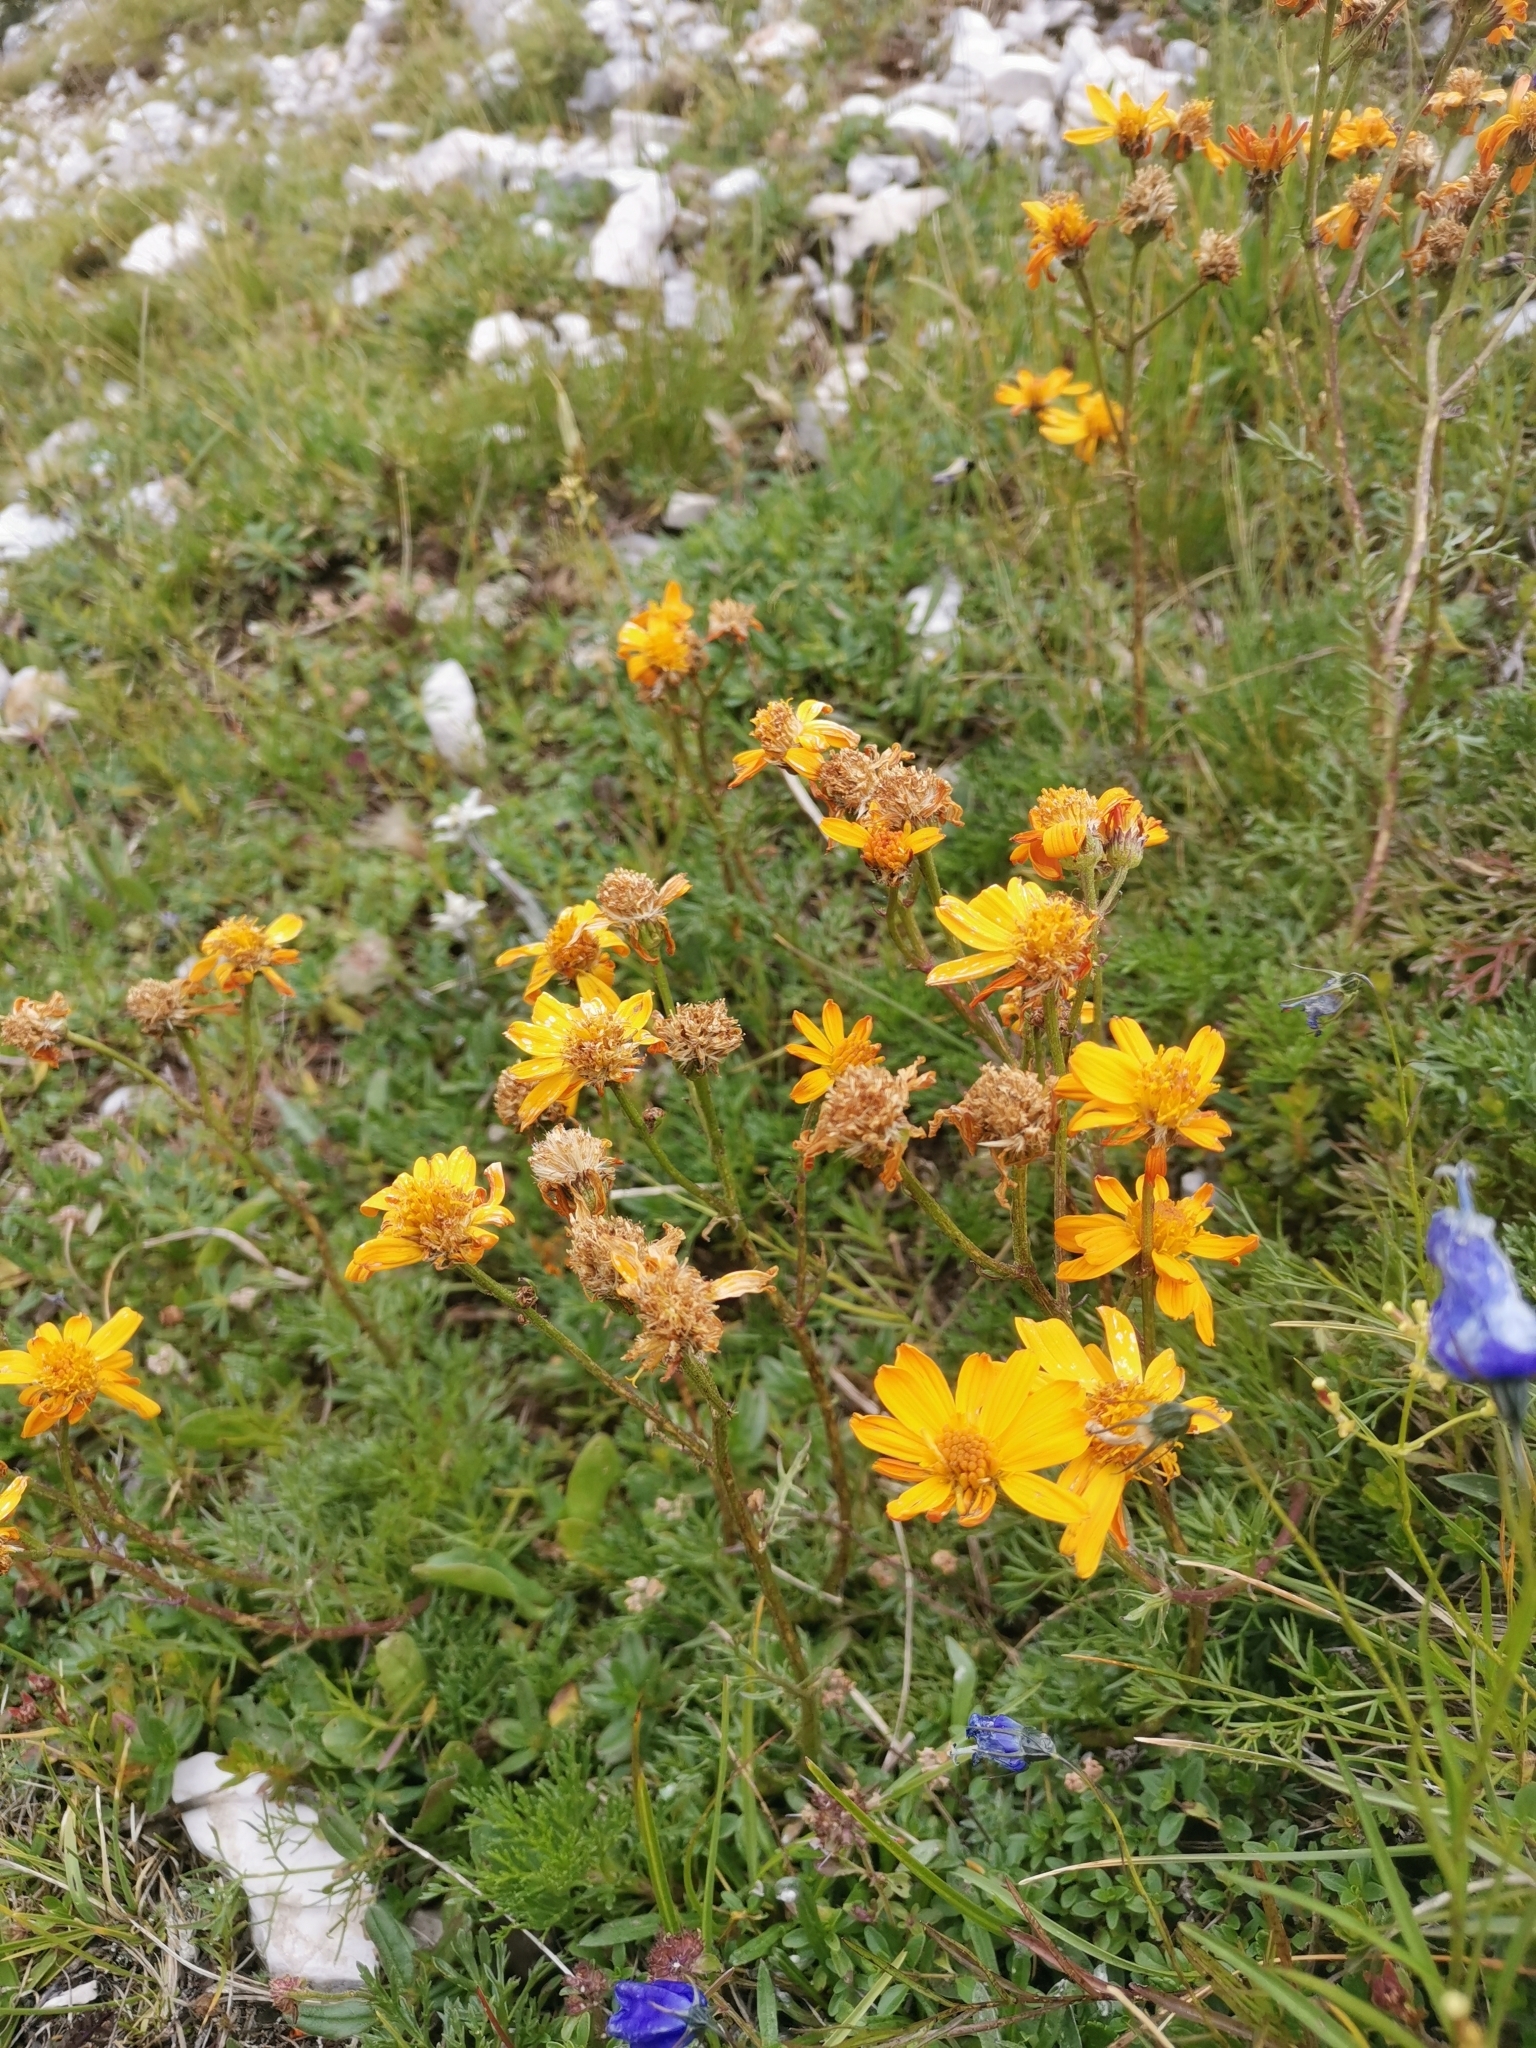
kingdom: Plantae
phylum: Tracheophyta
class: Magnoliopsida
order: Asterales
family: Asteraceae
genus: Jacobaea
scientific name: Jacobaea abrotanifolia
